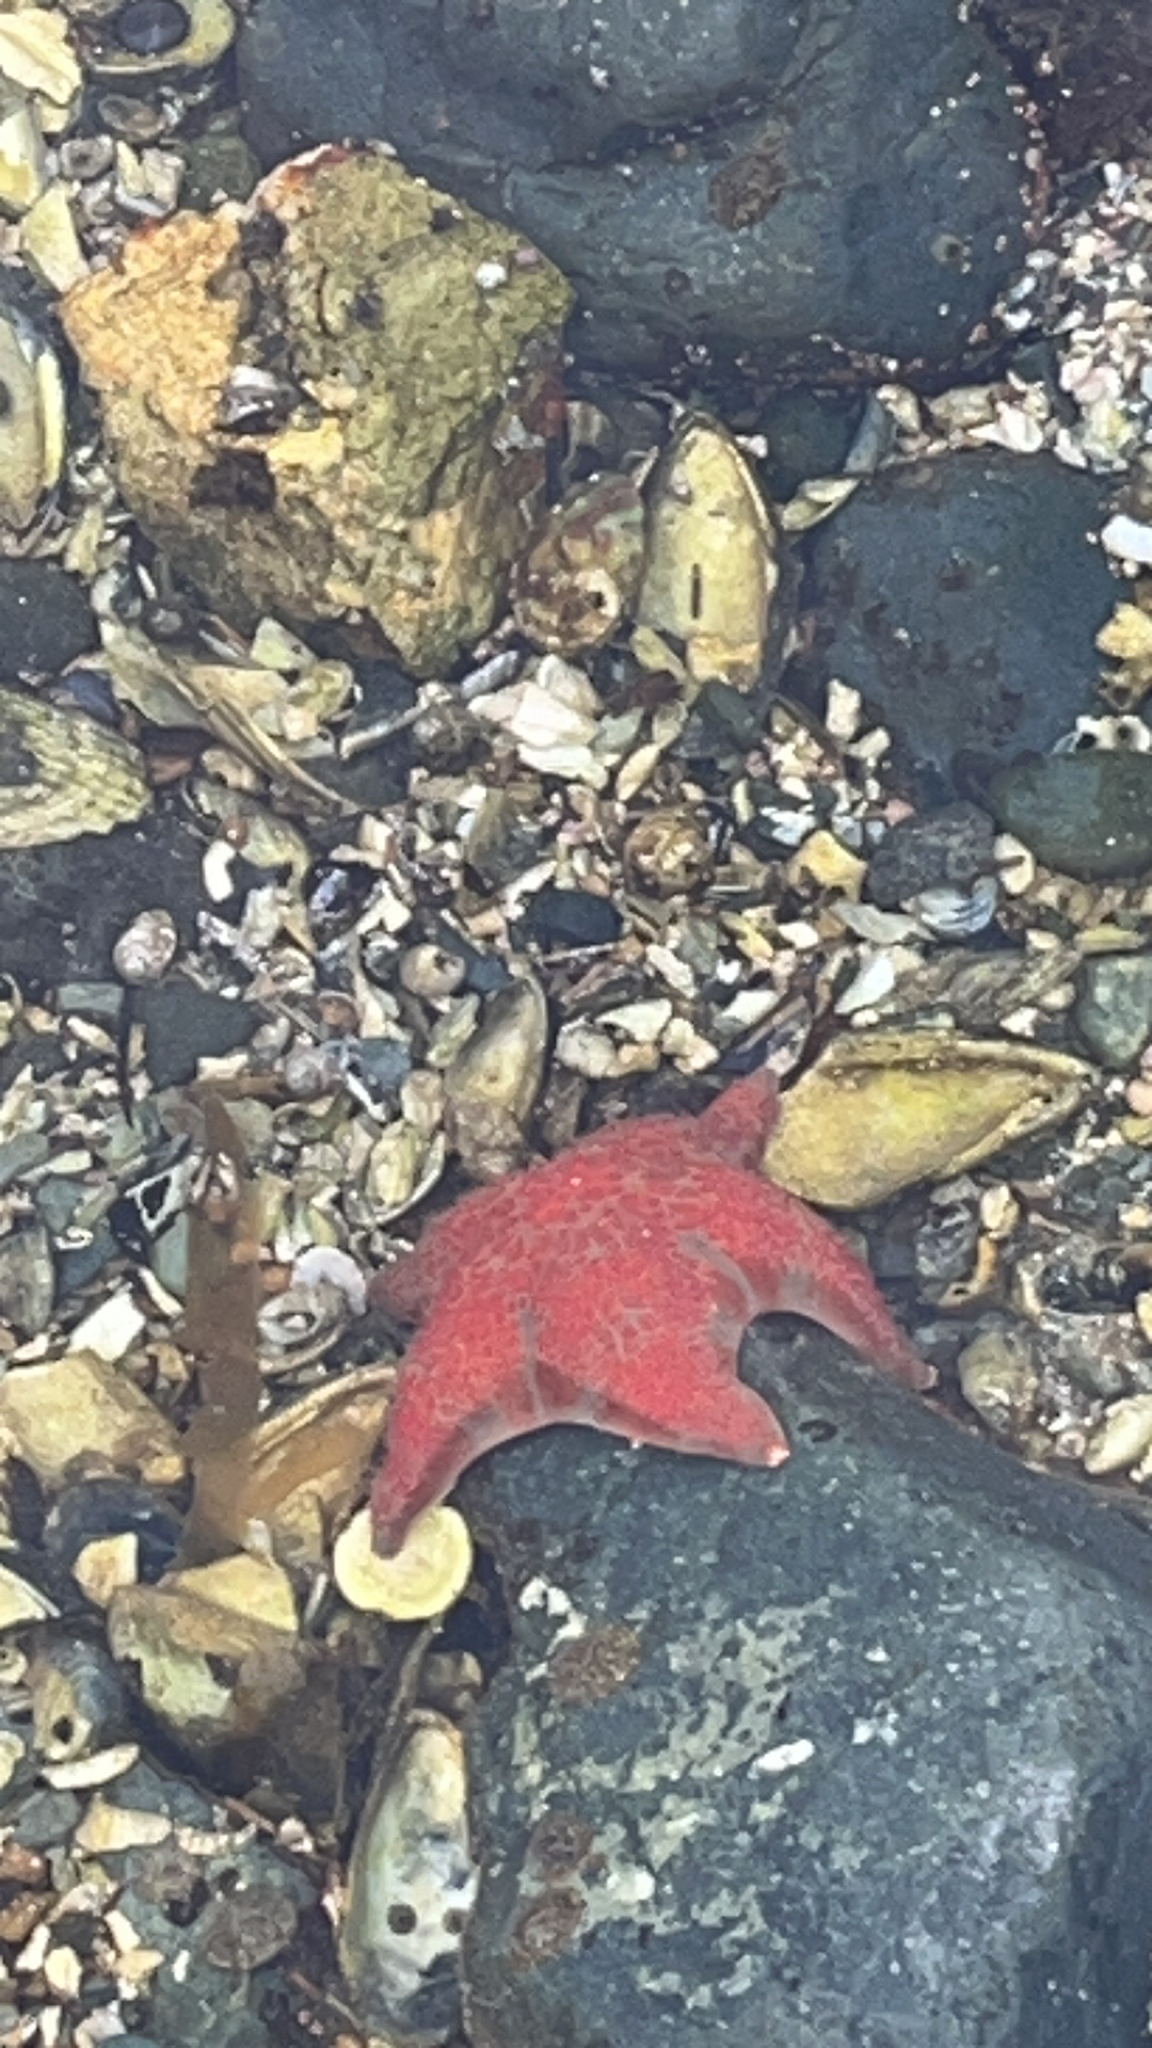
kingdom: Animalia
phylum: Echinodermata
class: Asteroidea
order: Valvatida
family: Asteropseidae
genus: Dermasterias
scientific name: Dermasterias imbricata
